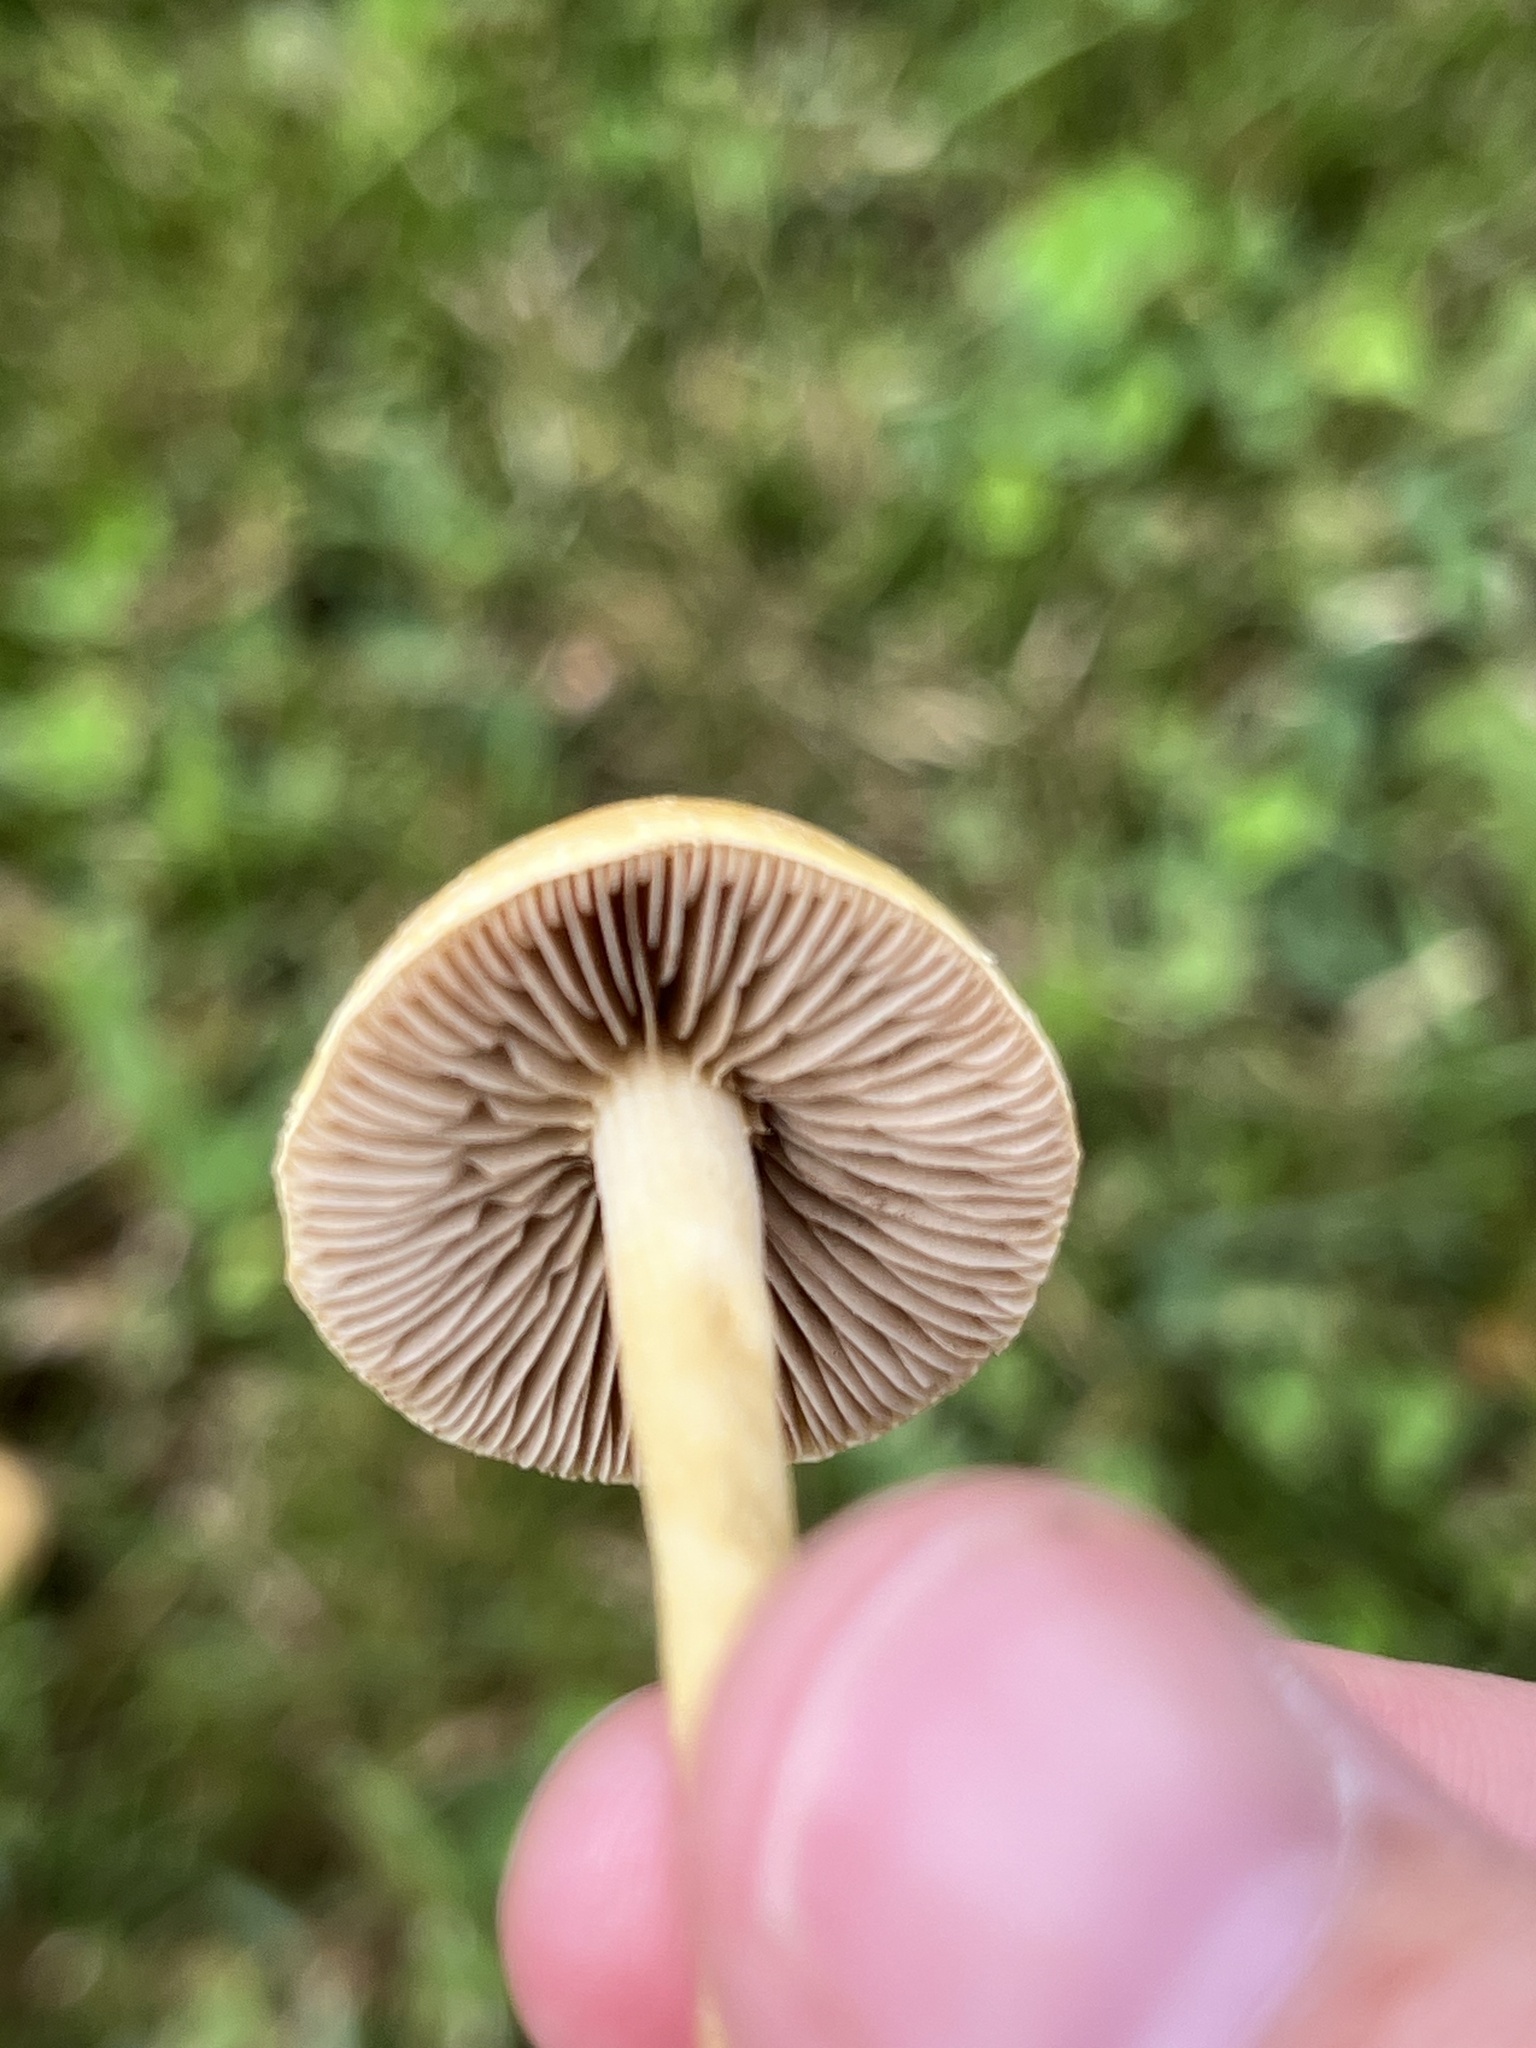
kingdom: Fungi
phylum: Basidiomycota
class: Agaricomycetes
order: Agaricales
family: Strophariaceae
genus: Agrocybe
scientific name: Agrocybe pediades
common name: Common fieldcap
